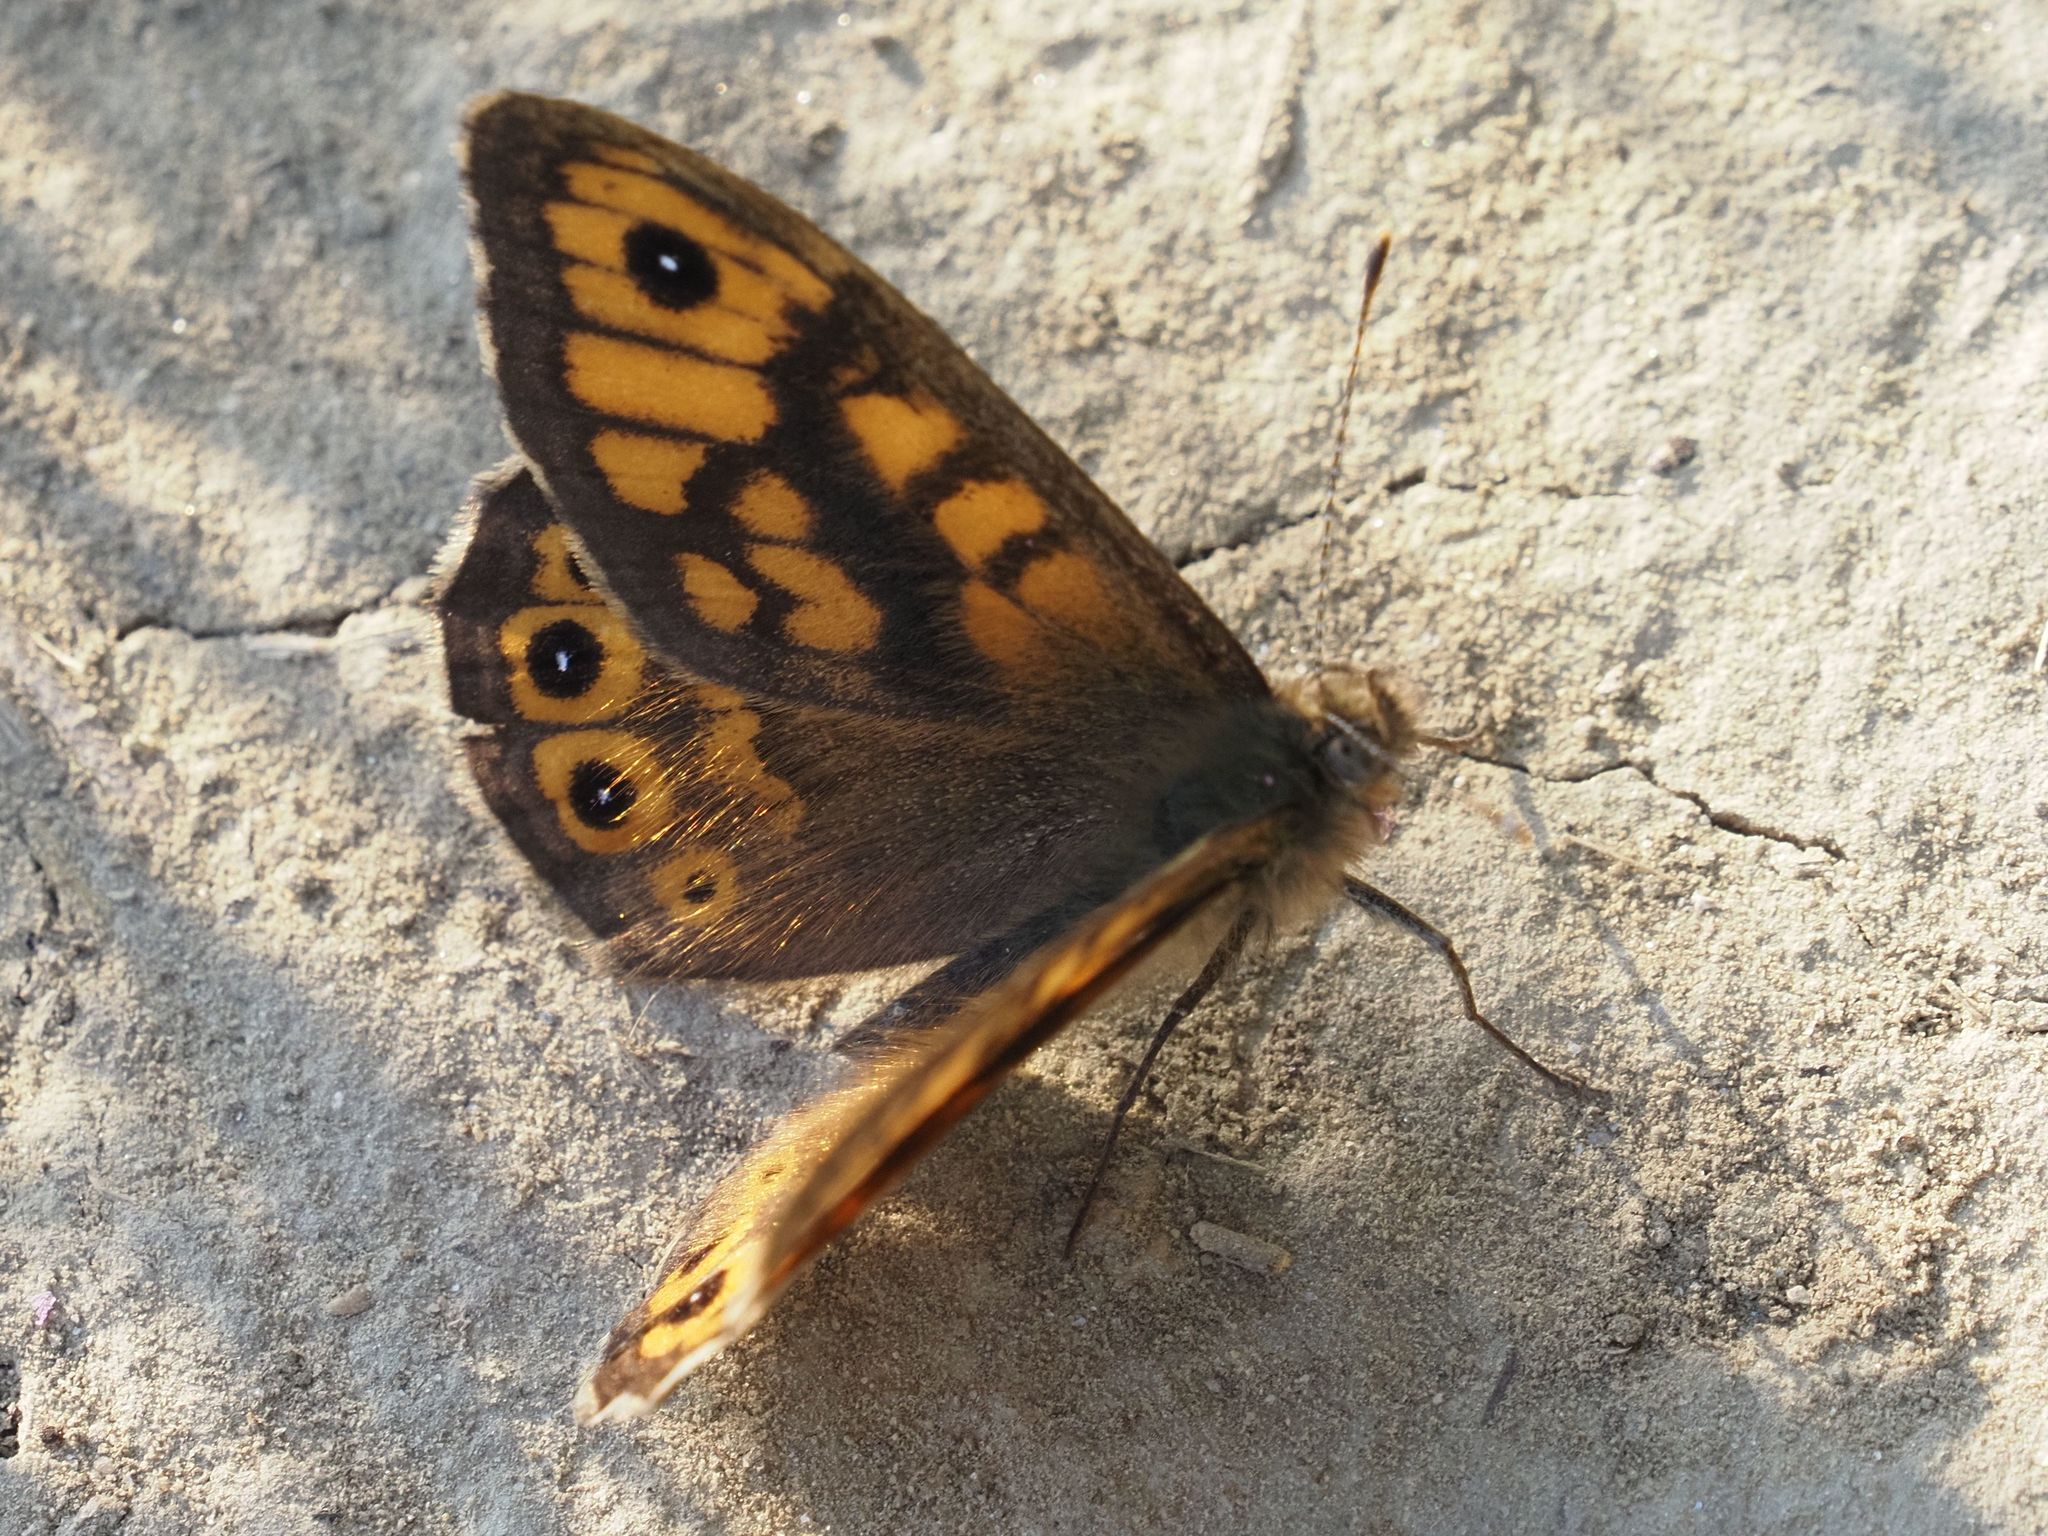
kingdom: Animalia
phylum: Arthropoda
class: Insecta
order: Lepidoptera
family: Nymphalidae
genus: Pararge
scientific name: Pararge Lasiommata megera
